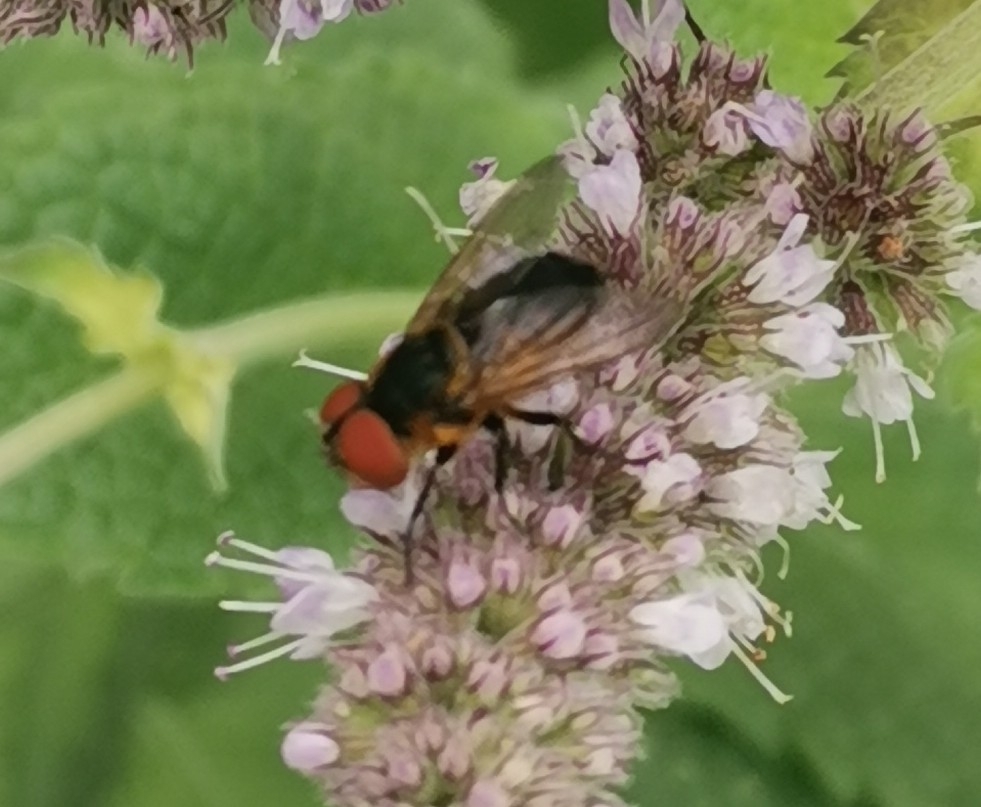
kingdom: Animalia
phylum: Arthropoda
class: Insecta
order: Diptera
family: Tachinidae
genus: Phasia
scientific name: Phasia hemiptera
